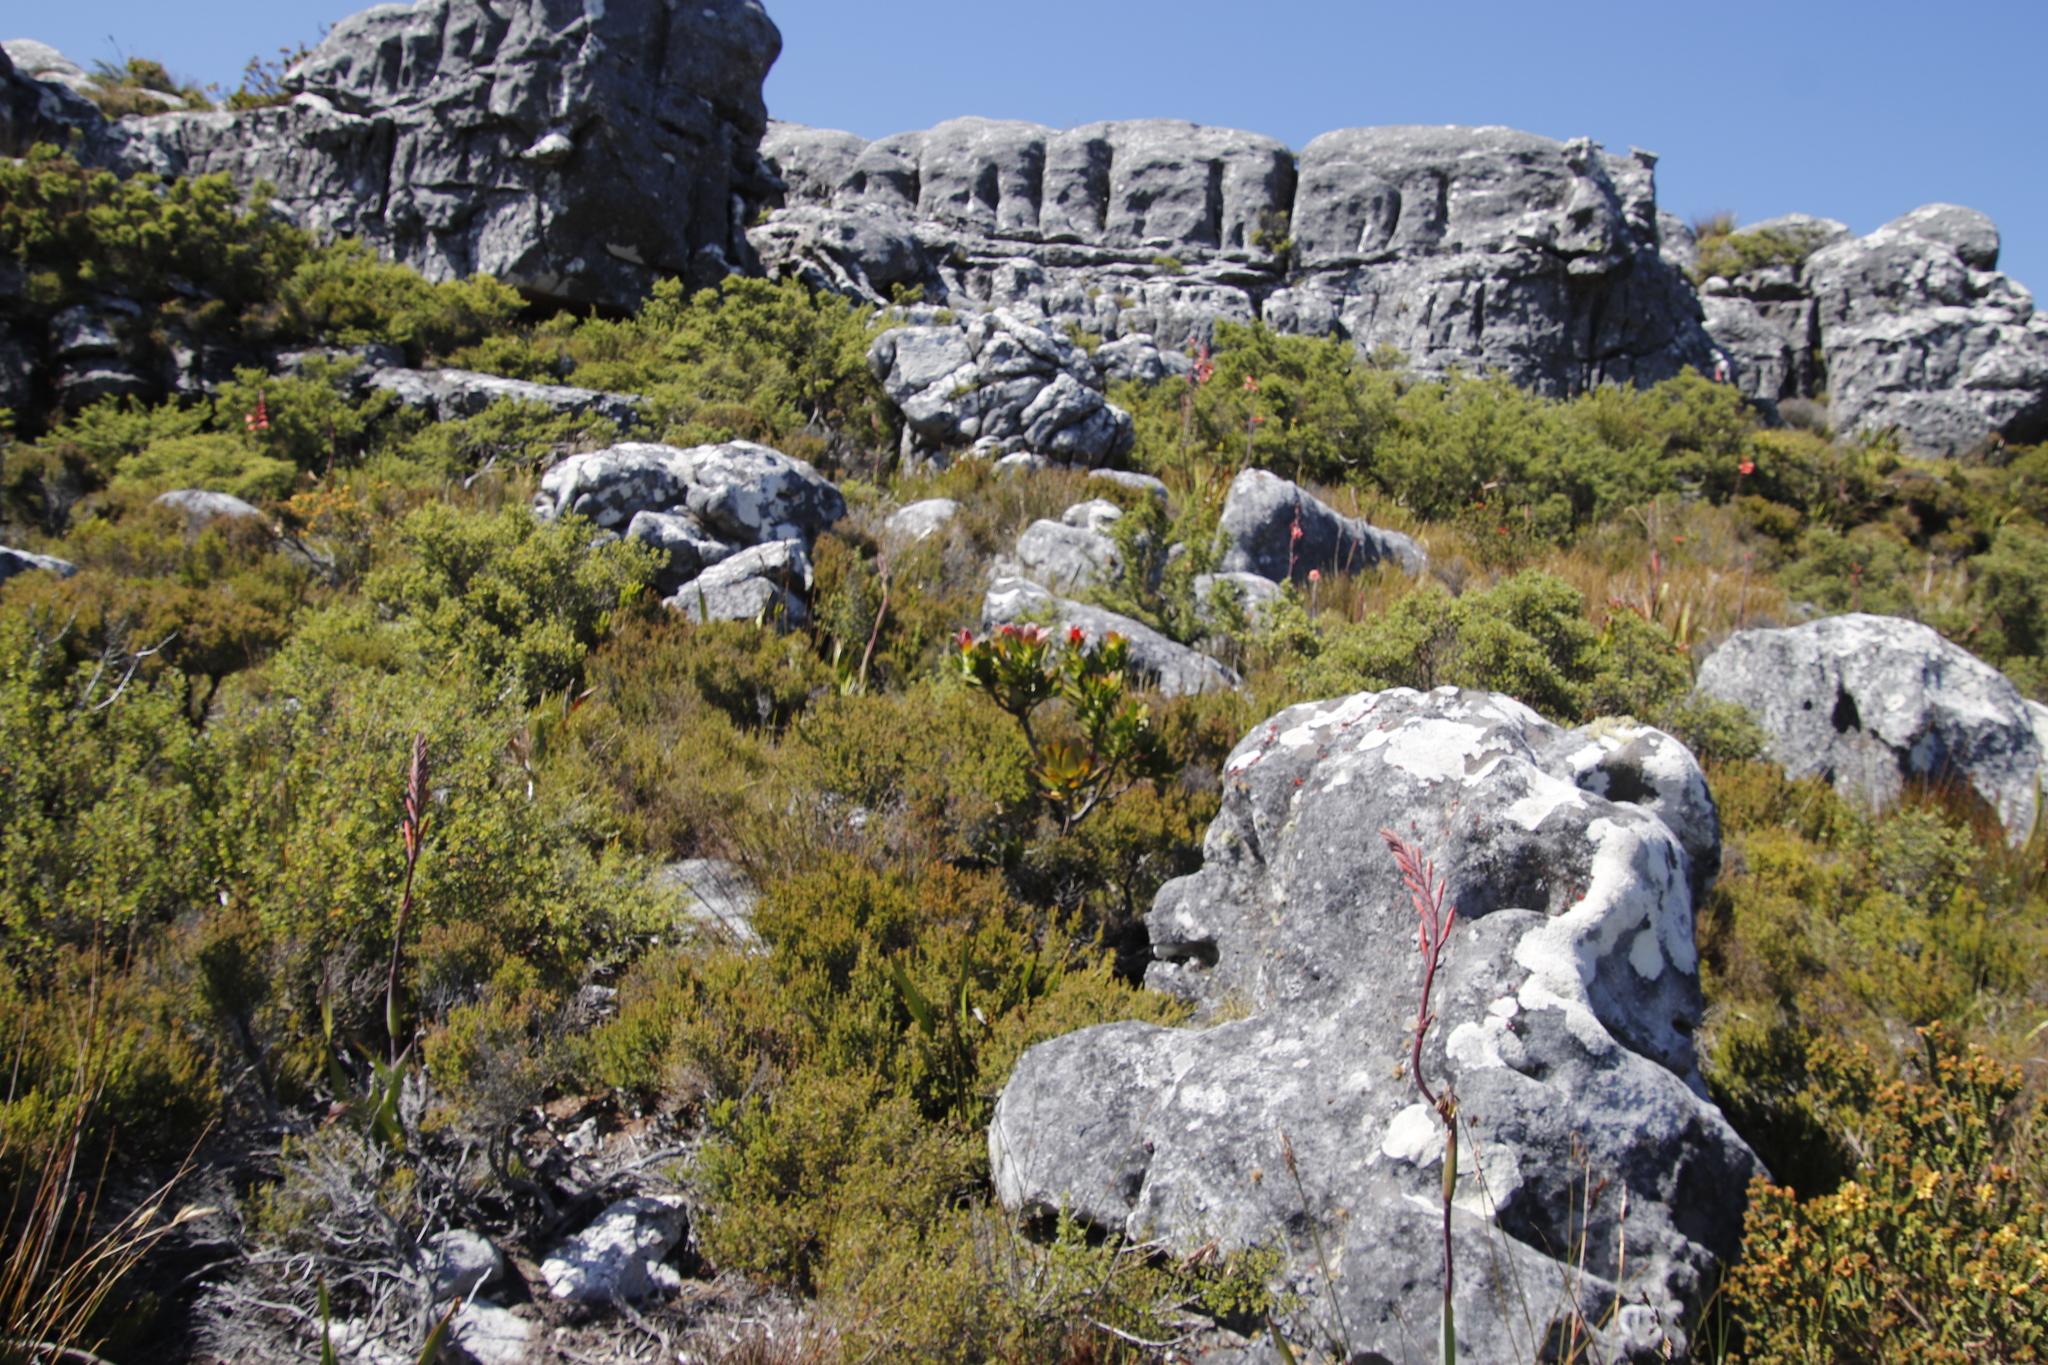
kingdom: Plantae
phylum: Tracheophyta
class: Magnoliopsida
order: Proteales
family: Proteaceae
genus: Leucadendron
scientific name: Leucadendron strobilinum
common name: Mountain rose
